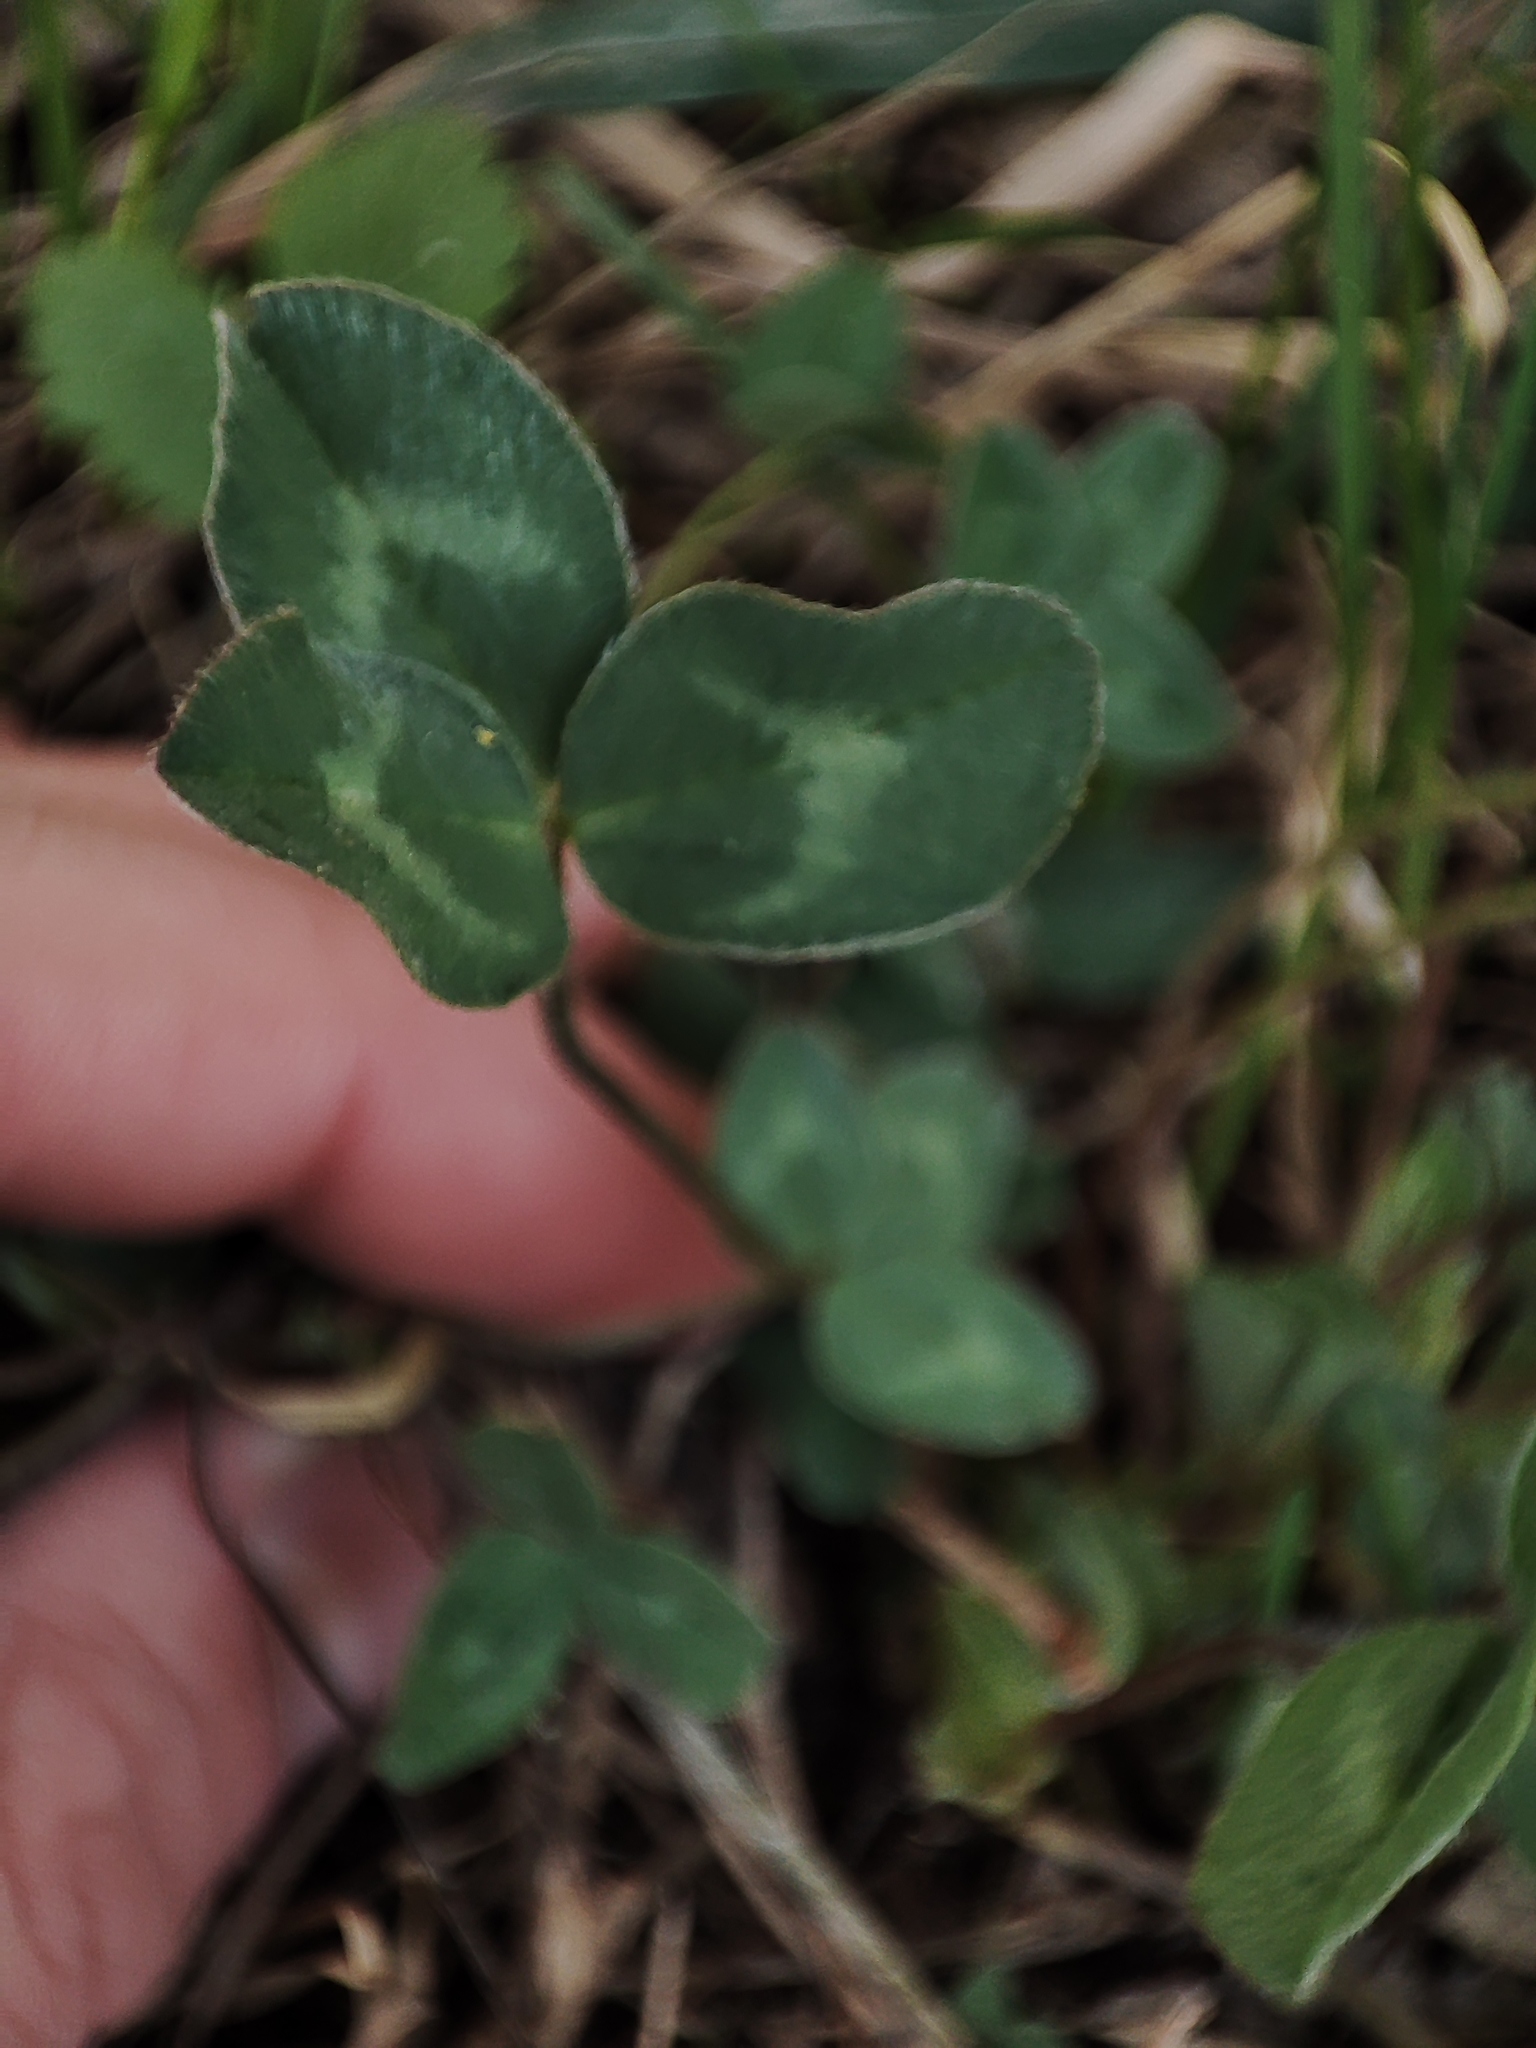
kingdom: Plantae
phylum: Tracheophyta
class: Magnoliopsida
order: Fabales
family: Fabaceae
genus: Trifolium
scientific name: Trifolium pratense
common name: Red clover
